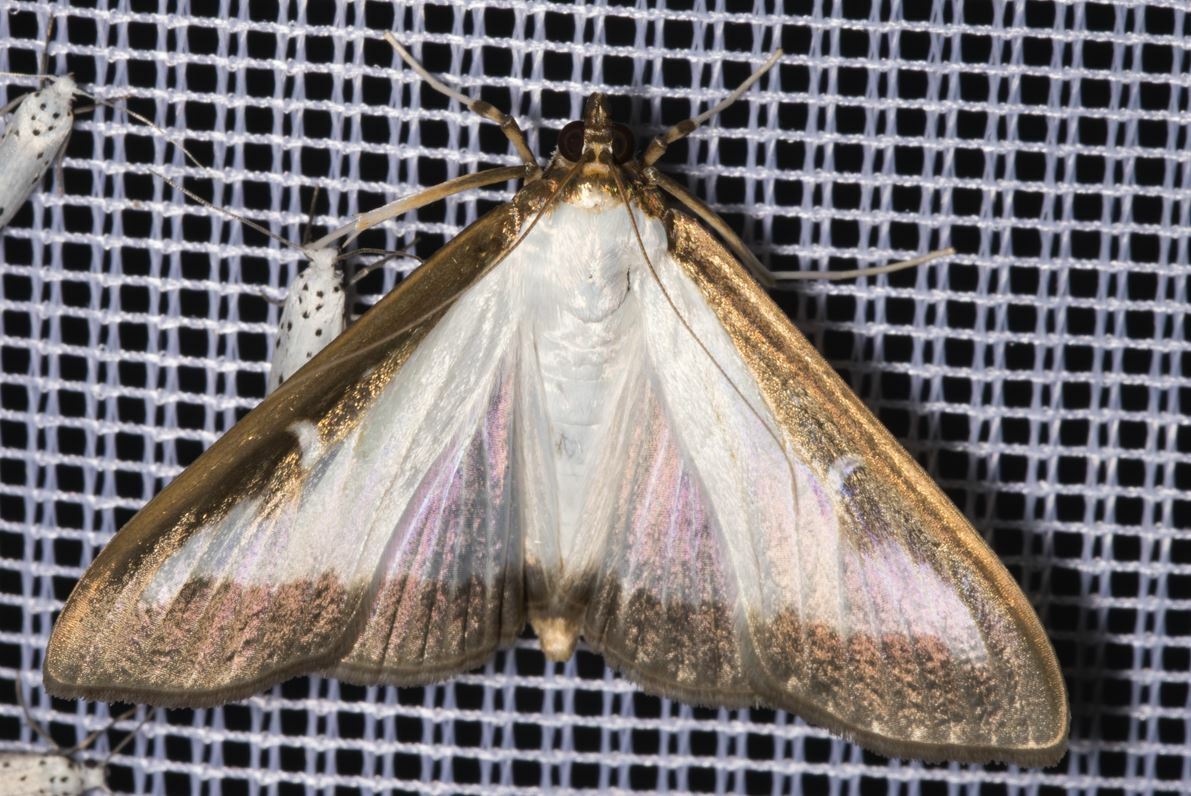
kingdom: Animalia
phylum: Arthropoda
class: Insecta
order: Lepidoptera
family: Crambidae
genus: Cydalima
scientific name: Cydalima perspectalis
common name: Box tree moth
